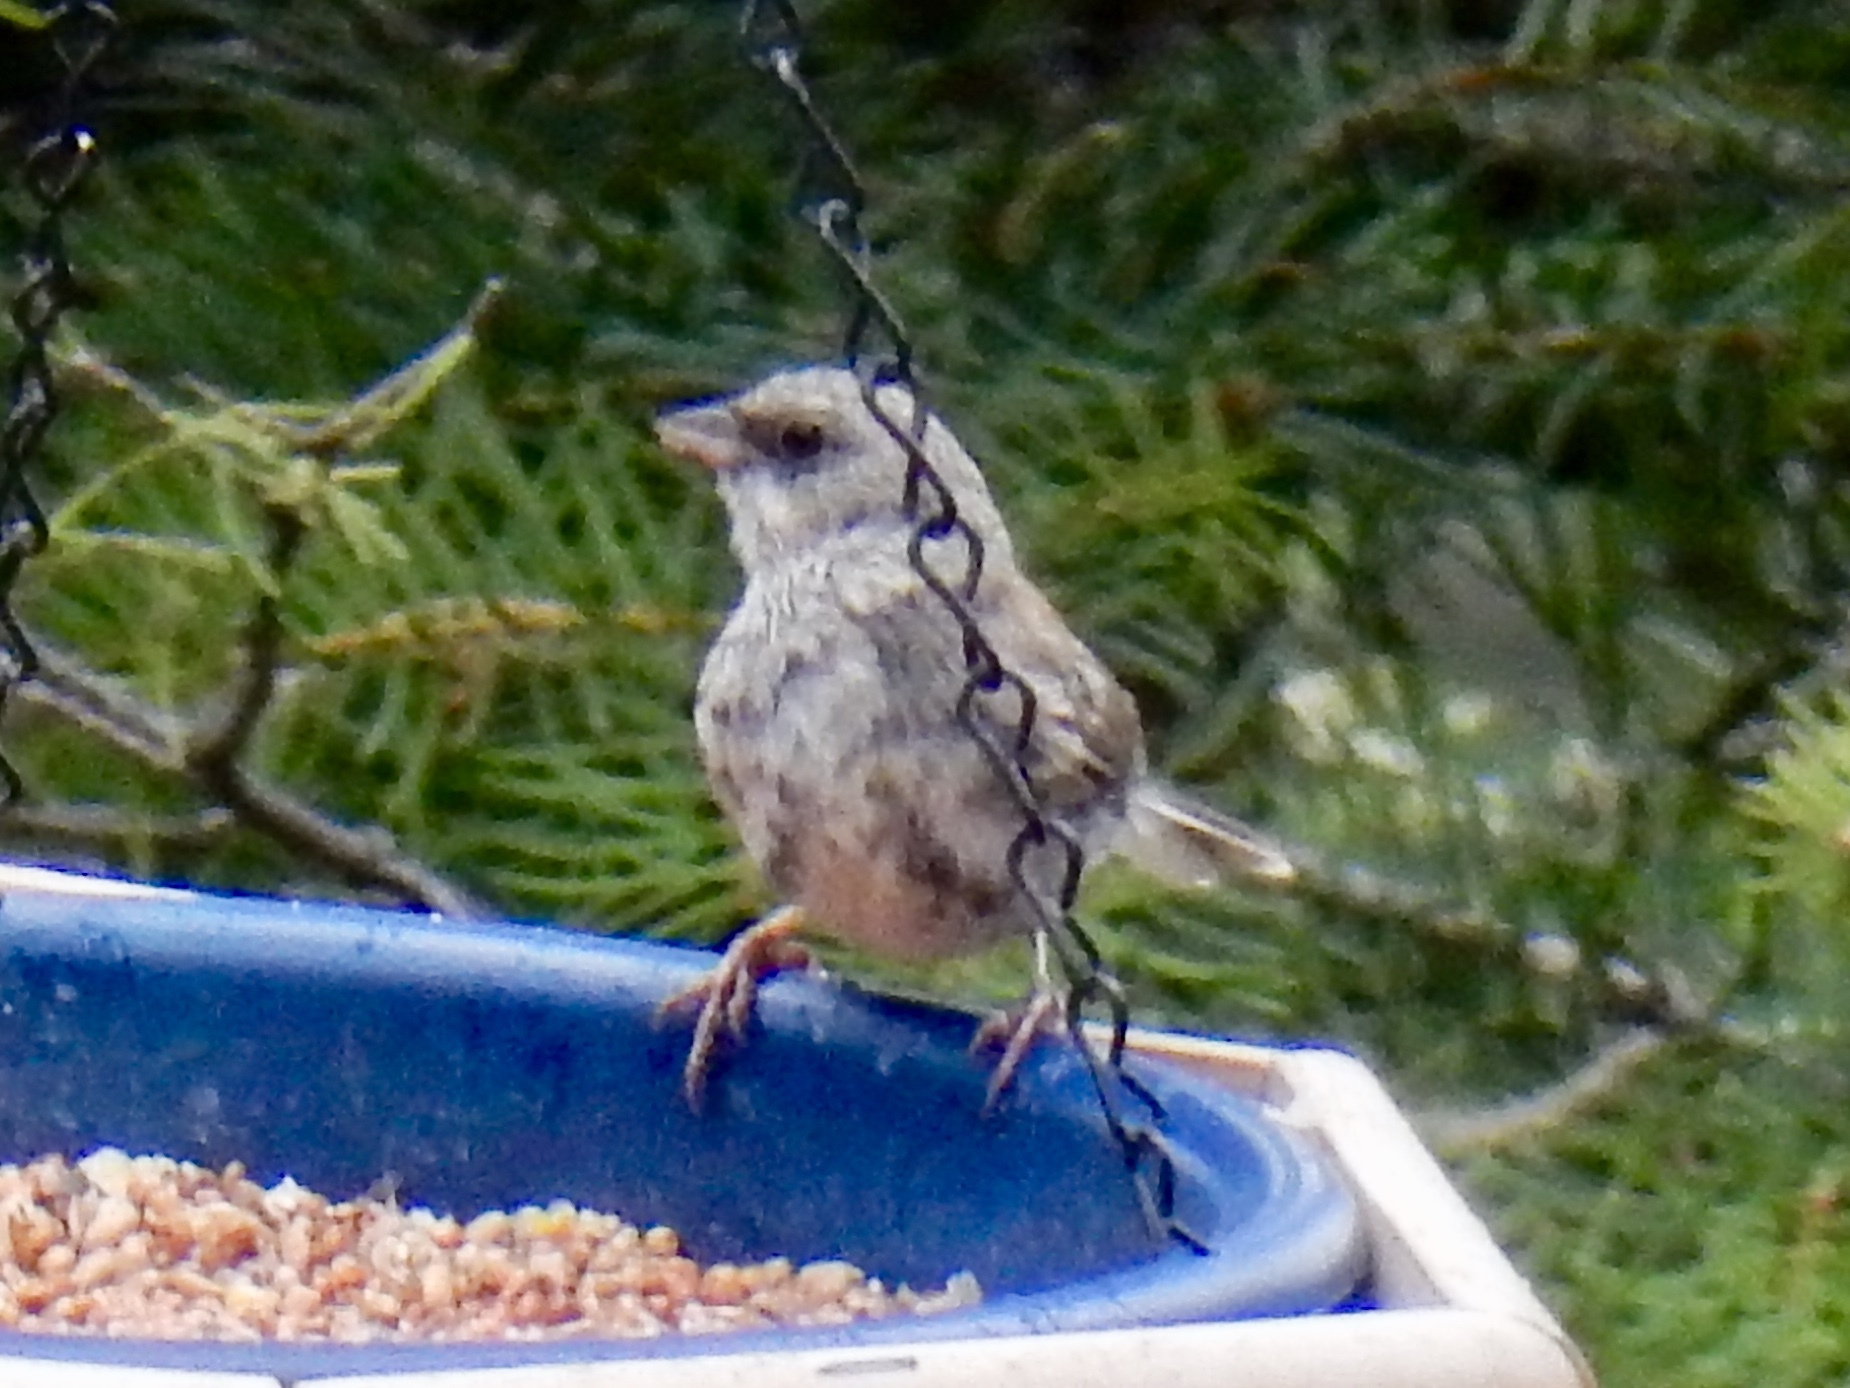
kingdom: Animalia
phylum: Chordata
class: Aves
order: Passeriformes
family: Passerellidae
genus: Junco
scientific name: Junco hyemalis
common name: Dark-eyed junco
